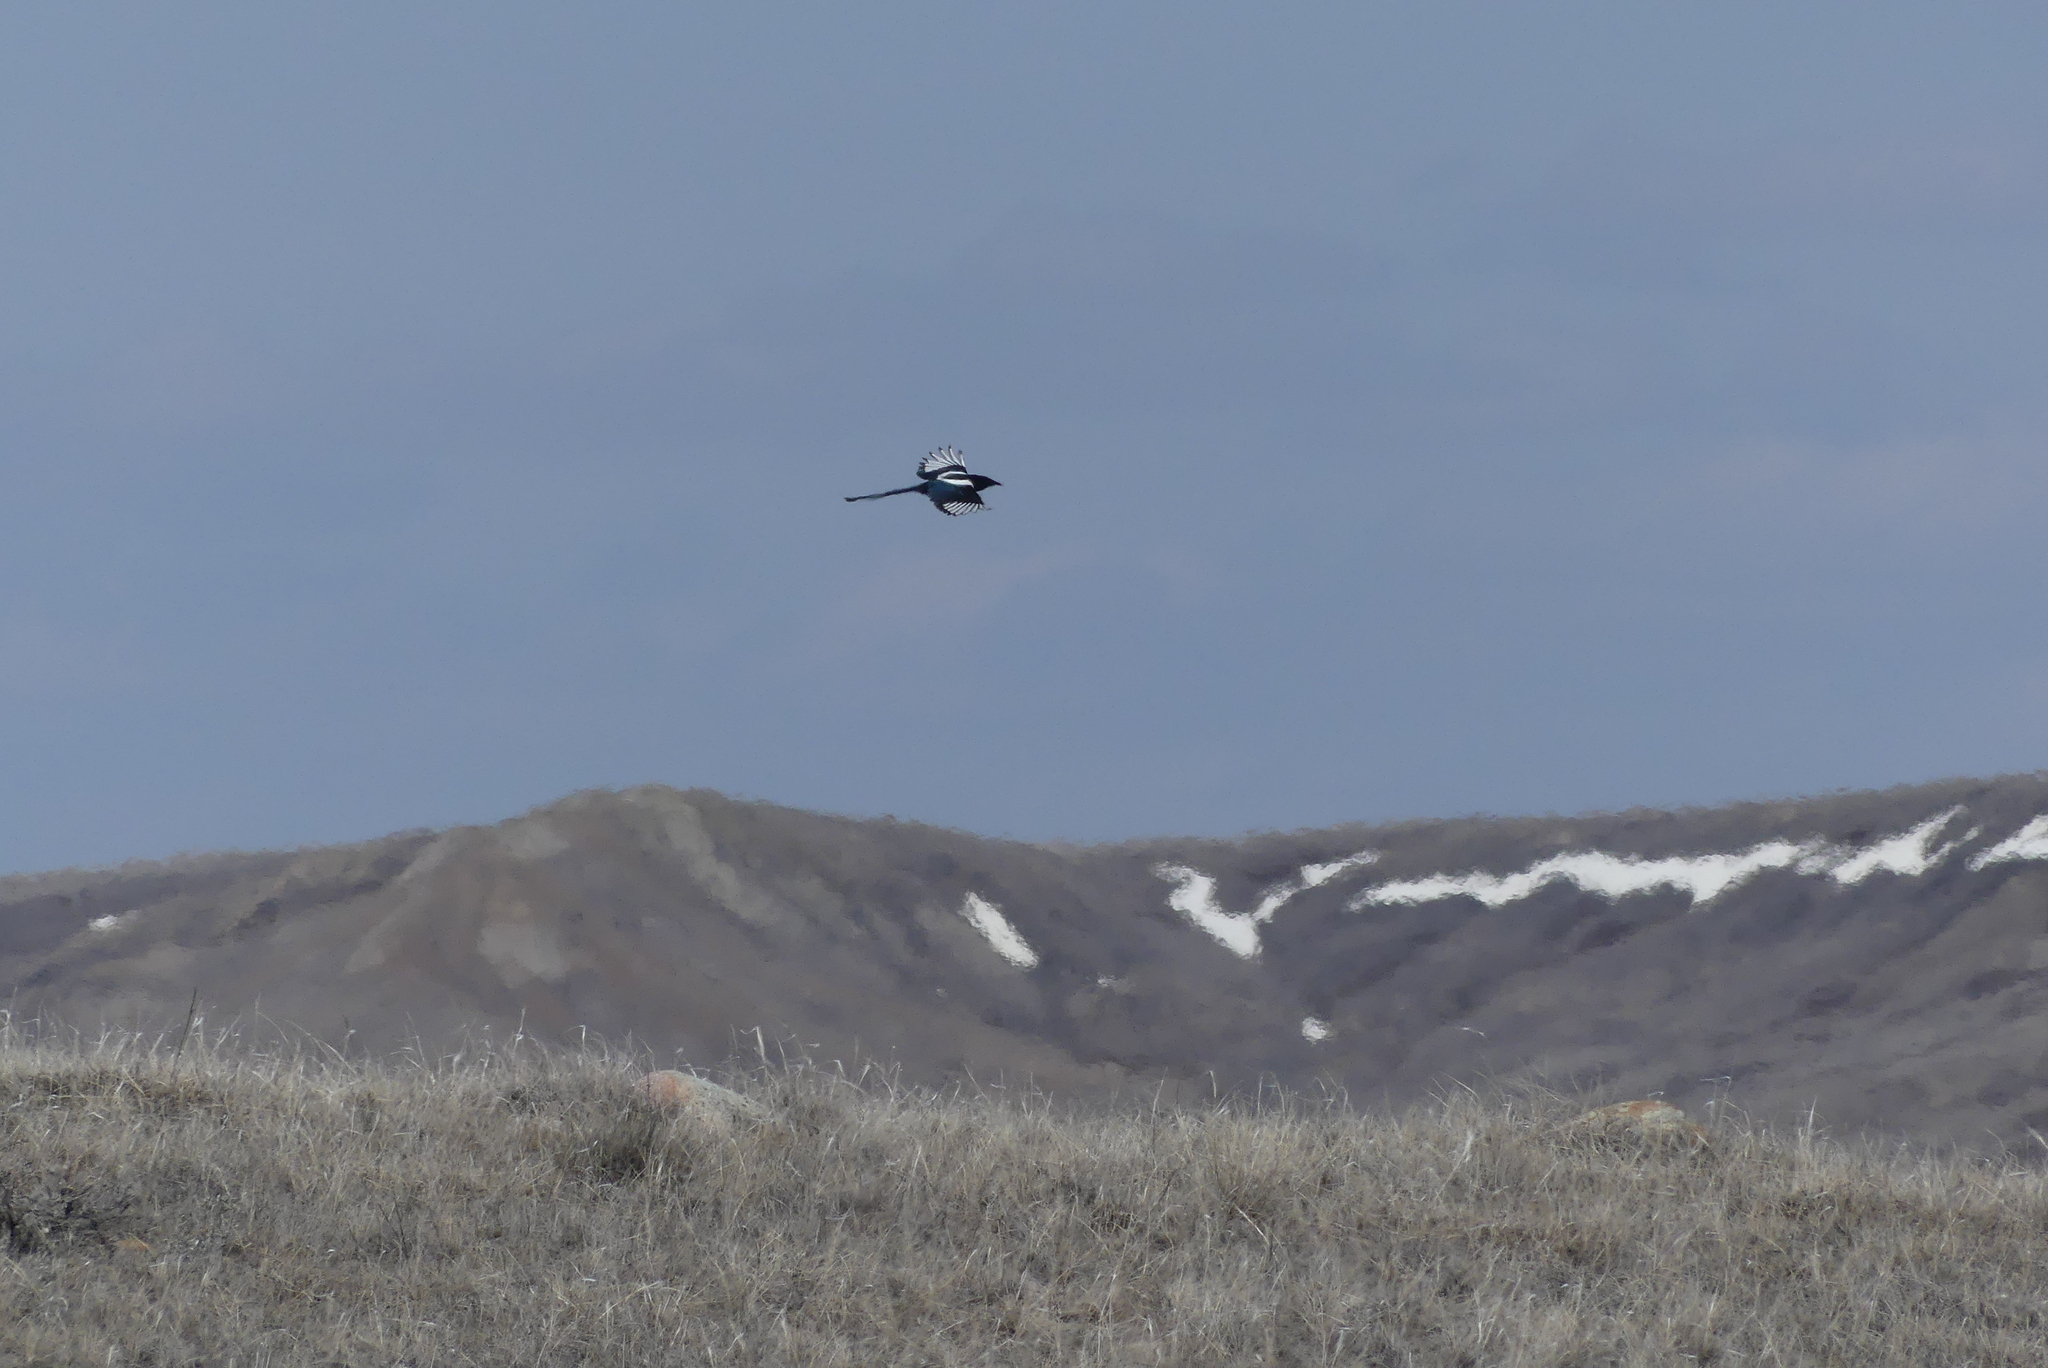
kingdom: Animalia
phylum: Chordata
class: Aves
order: Passeriformes
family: Corvidae
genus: Pica
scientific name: Pica hudsonia
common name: Black-billed magpie
